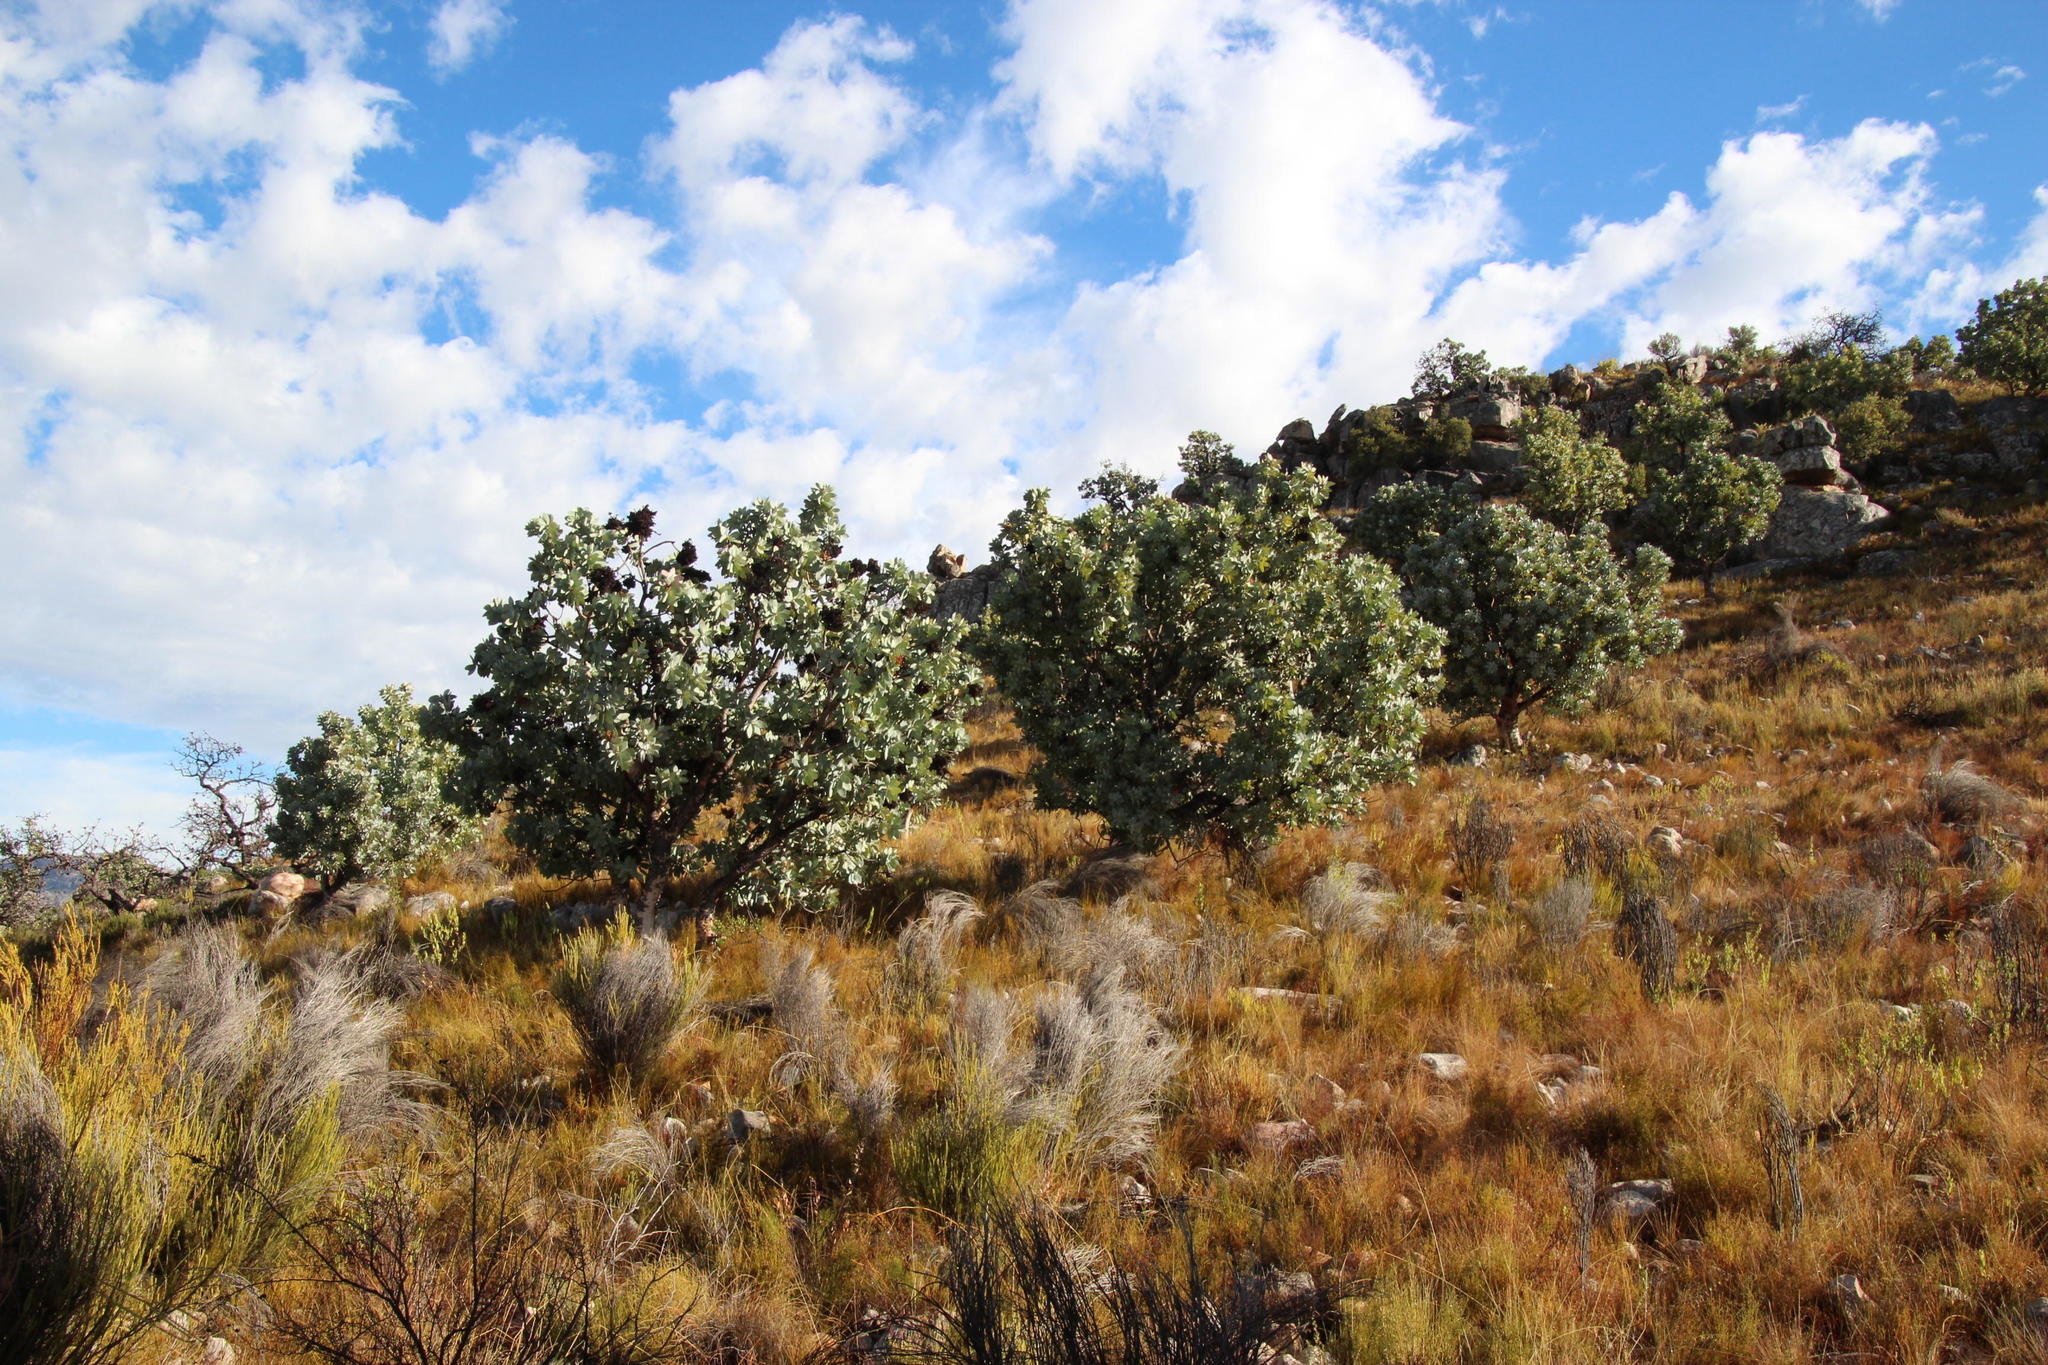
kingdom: Plantae
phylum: Tracheophyta
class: Magnoliopsida
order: Proteales
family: Proteaceae
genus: Protea
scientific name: Protea nitida
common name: Tree protea
